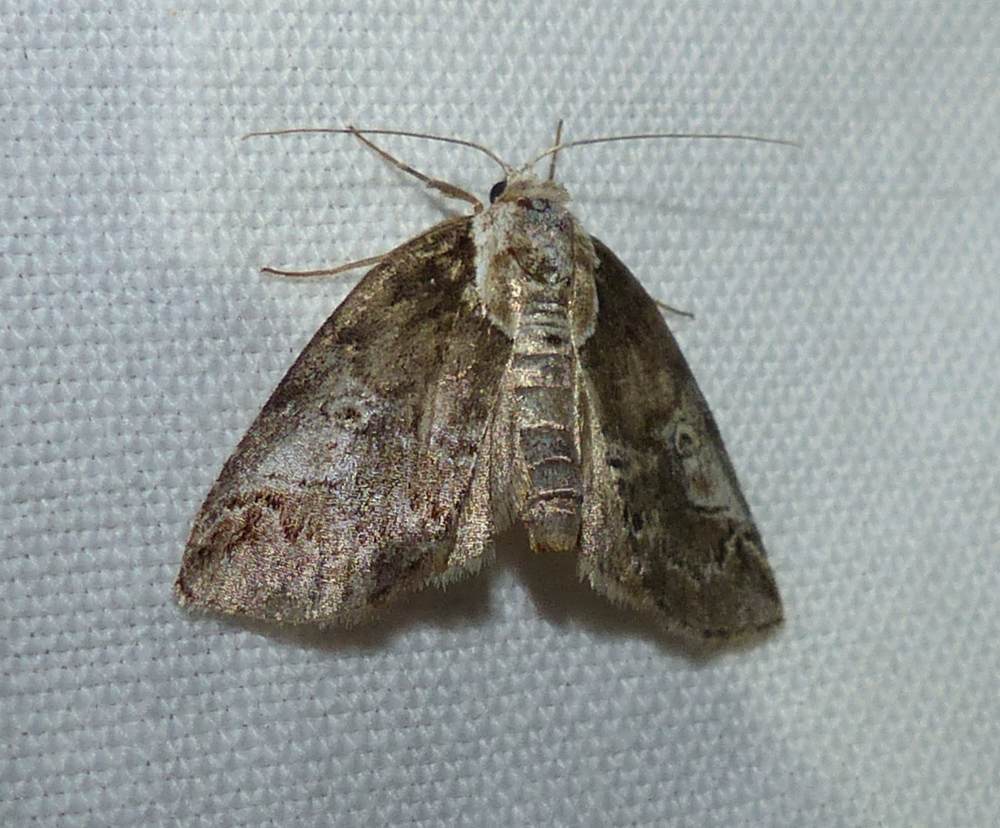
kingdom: Animalia
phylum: Arthropoda
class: Insecta
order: Lepidoptera
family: Nolidae
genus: Baileya
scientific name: Baileya ophthalmica
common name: Eyed baileya moth
